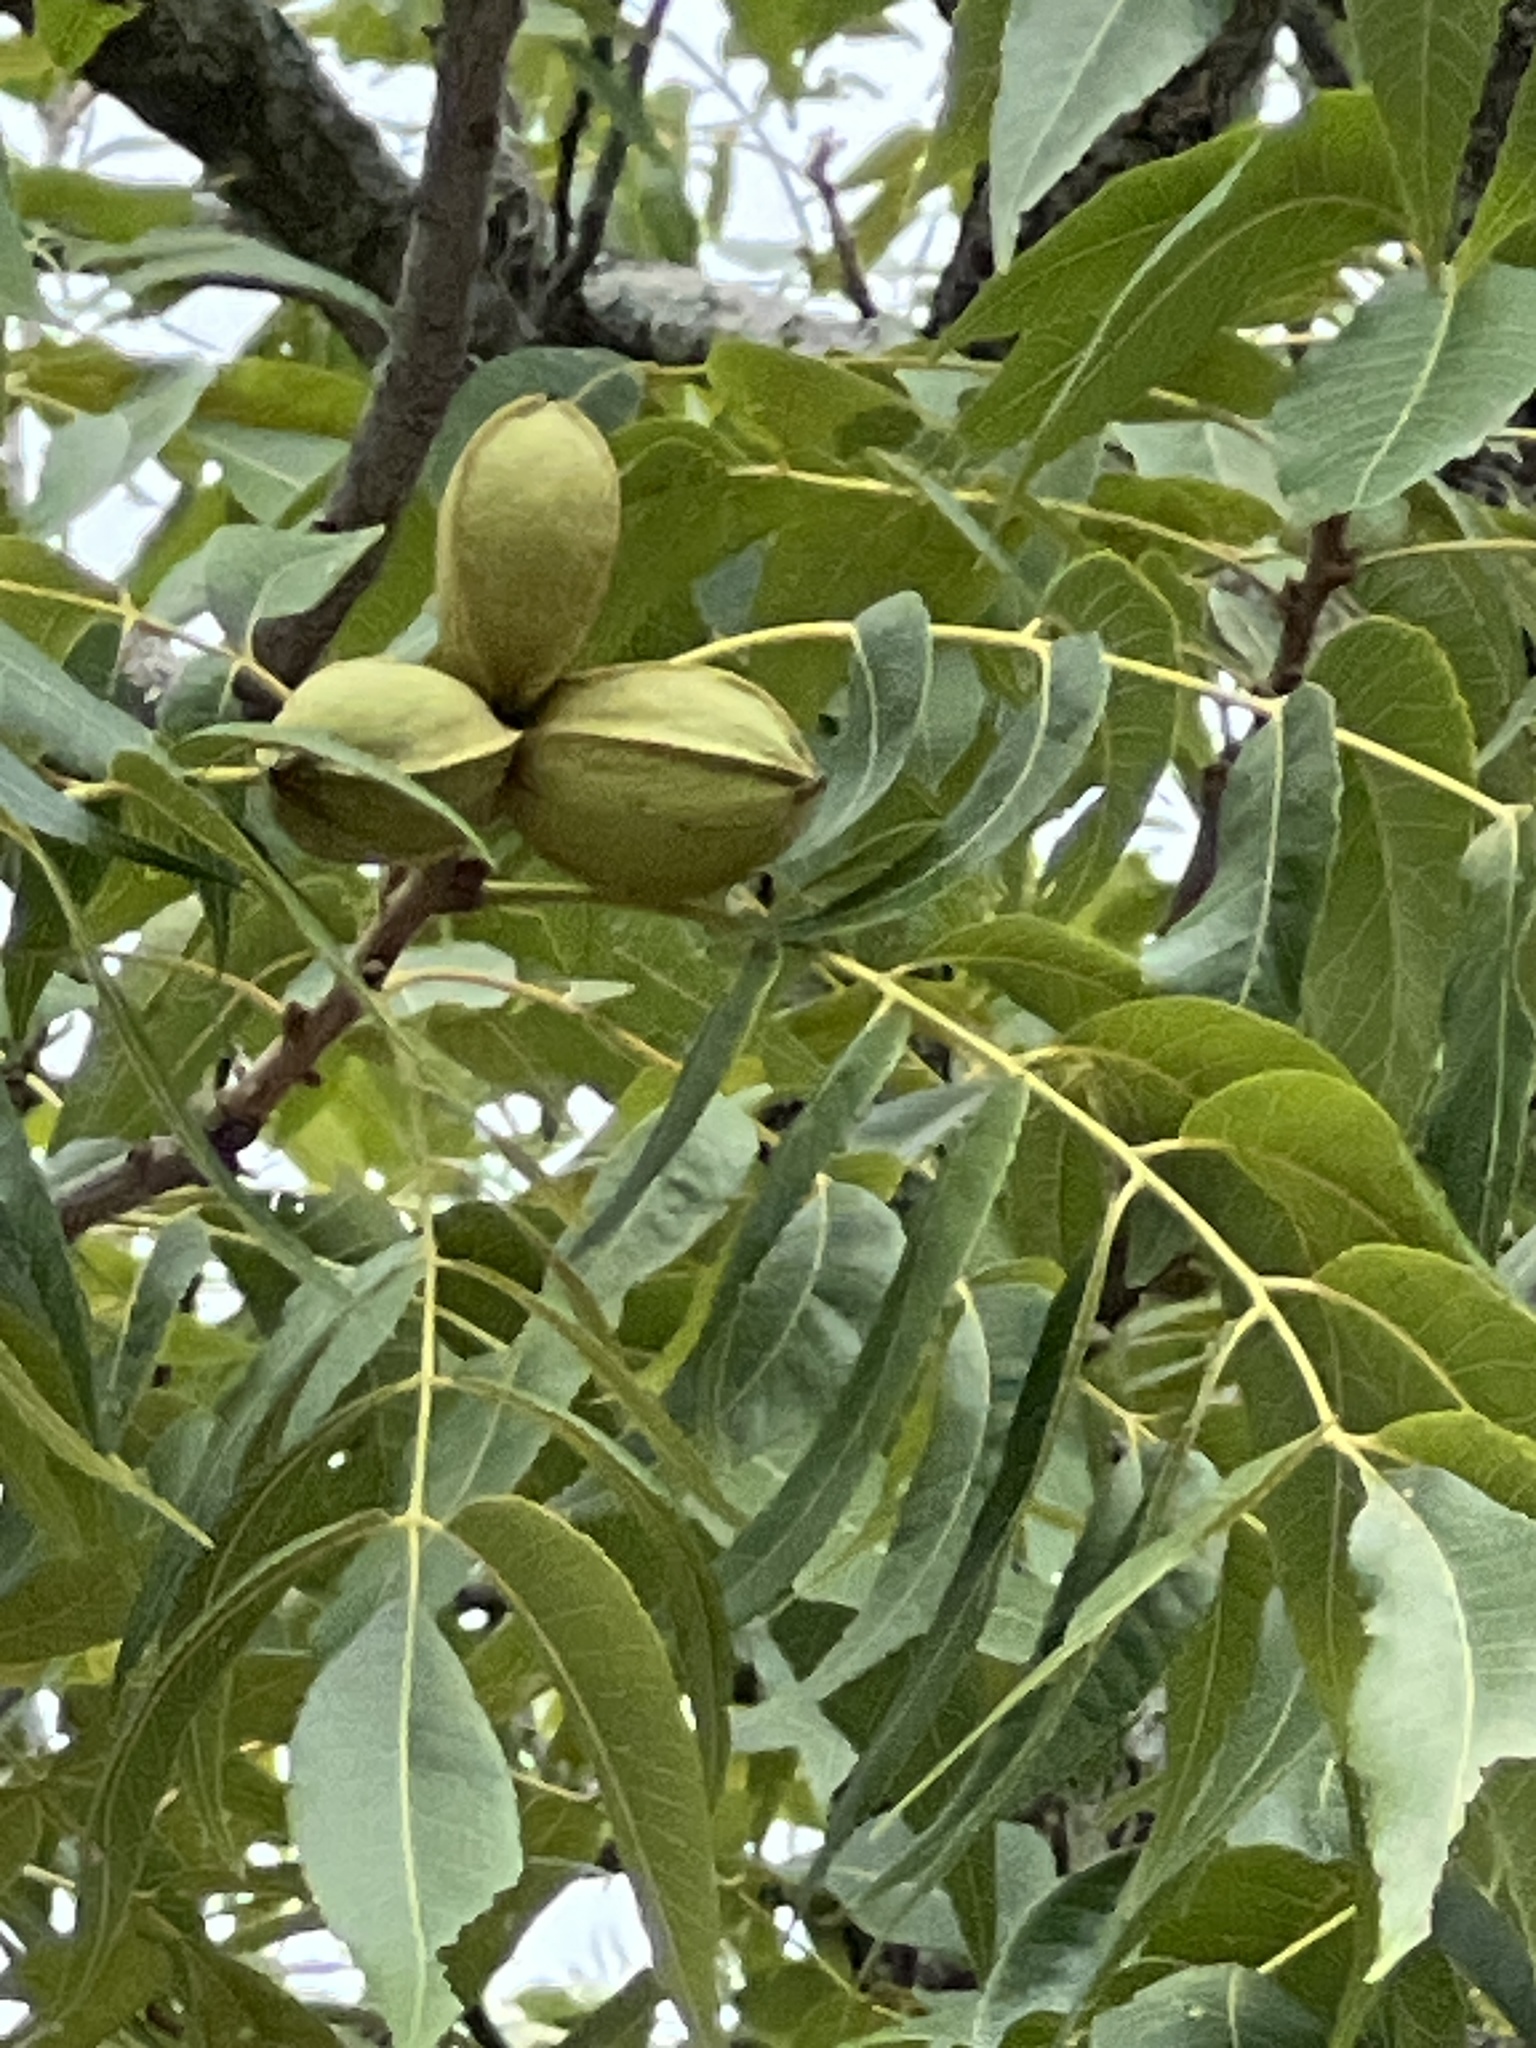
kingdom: Plantae
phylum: Tracheophyta
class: Magnoliopsida
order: Fagales
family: Juglandaceae
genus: Carya
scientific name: Carya illinoinensis
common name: Pecan
